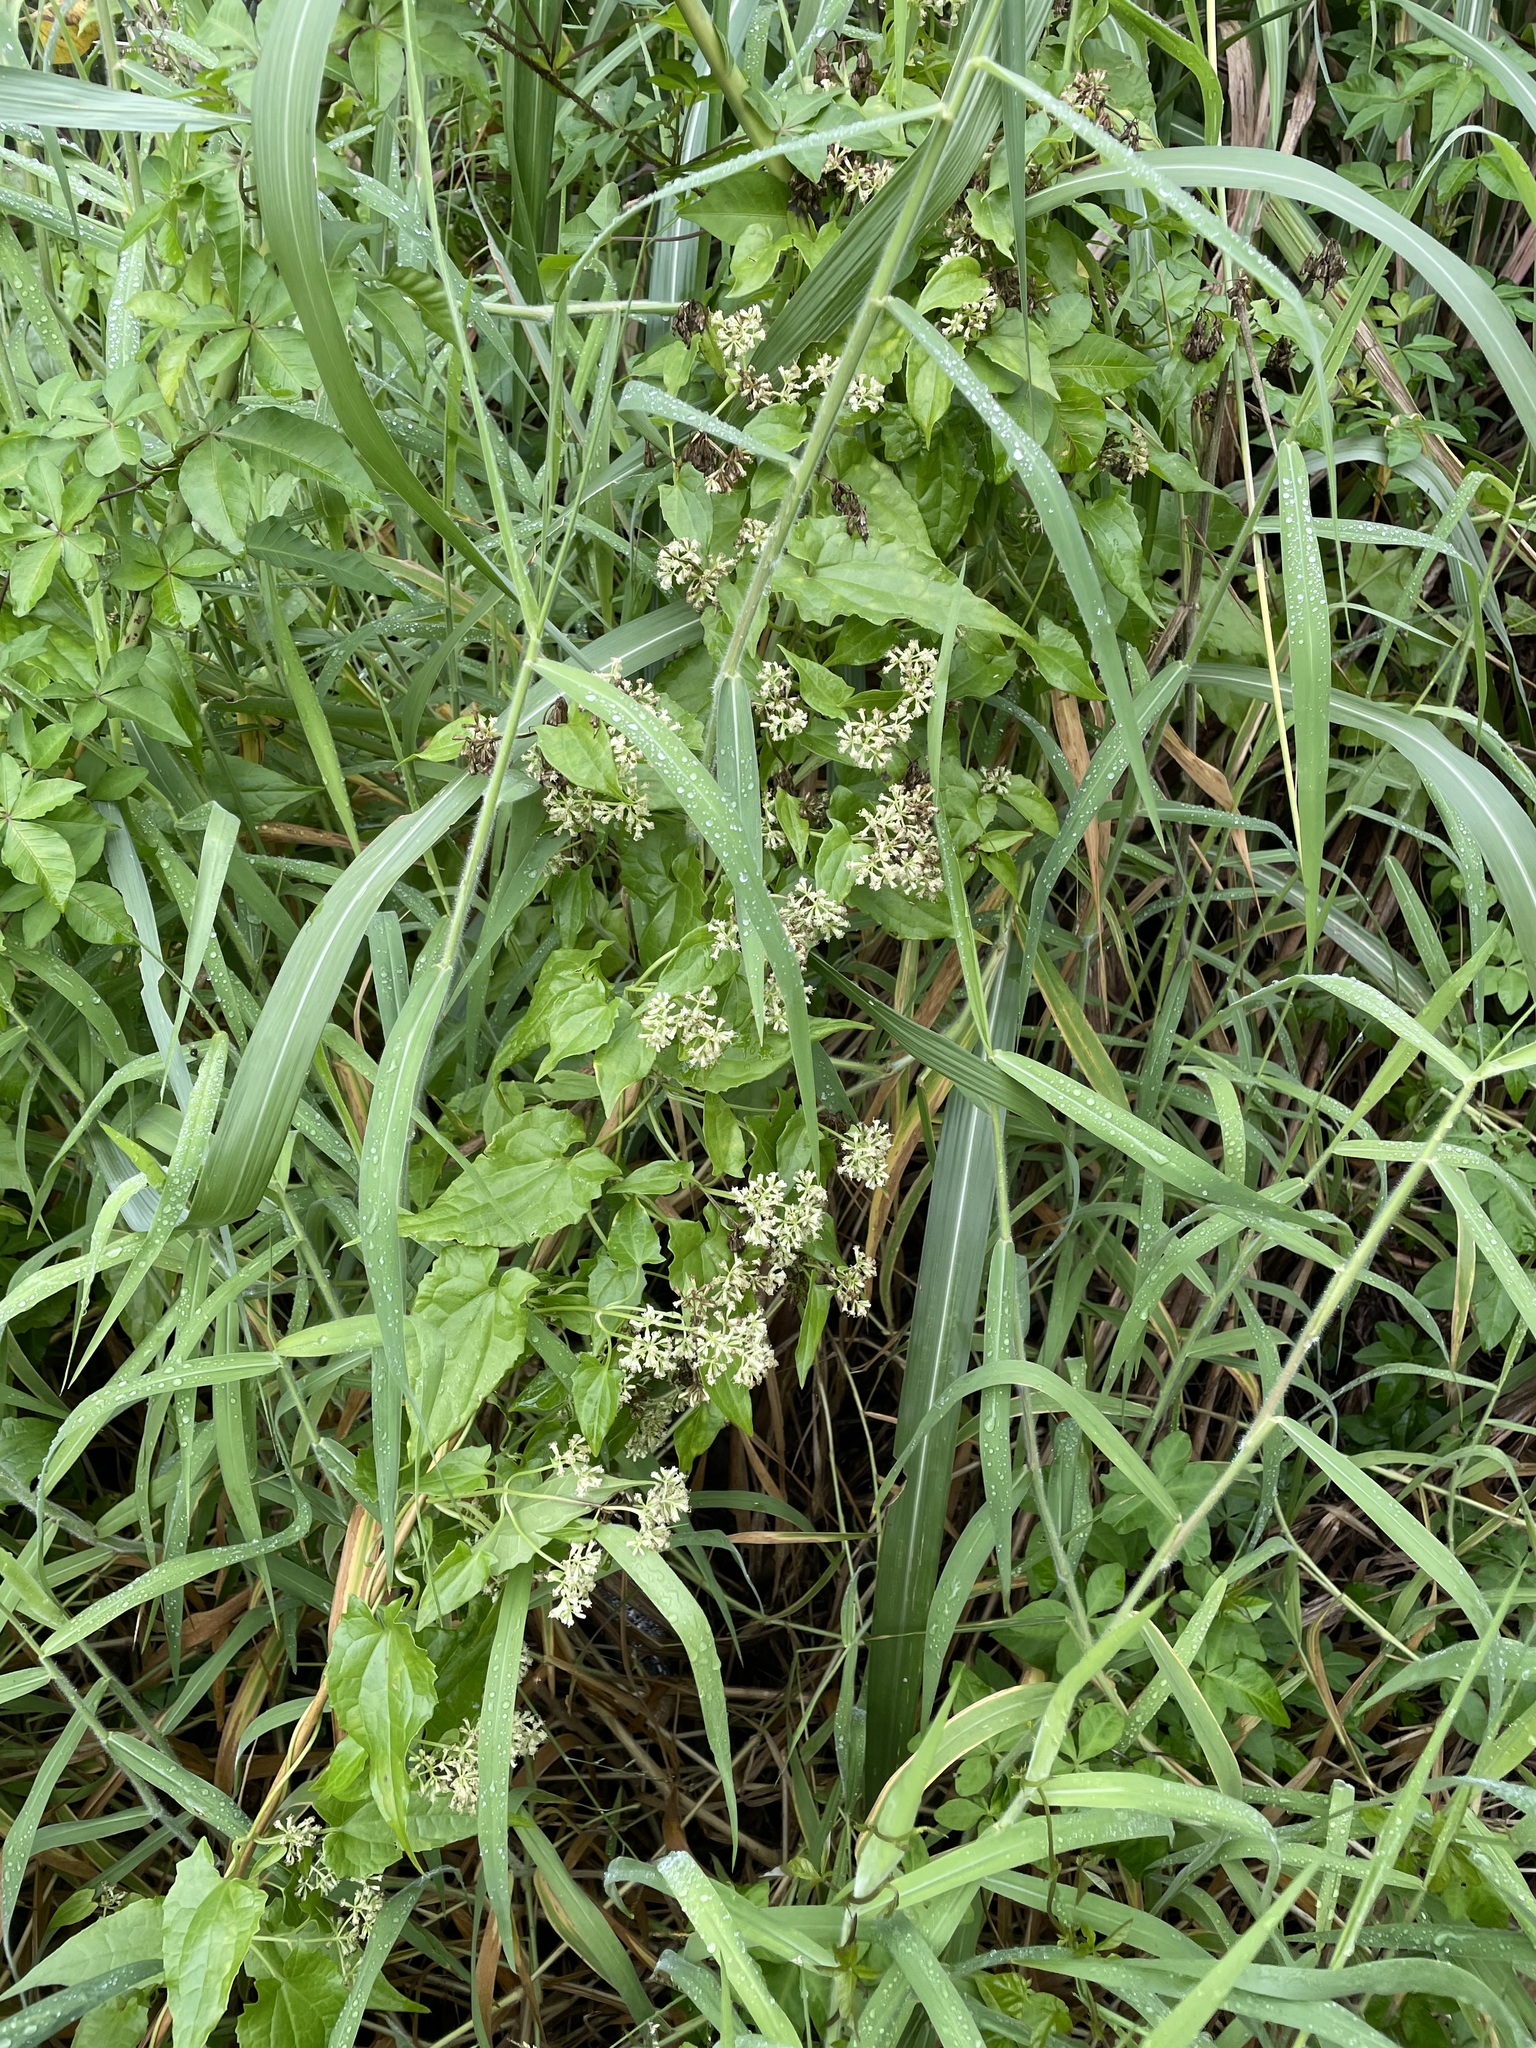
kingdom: Plantae
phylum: Tracheophyta
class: Magnoliopsida
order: Asterales
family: Asteraceae
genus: Mikania
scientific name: Mikania micrantha
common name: Mile-a-minute
